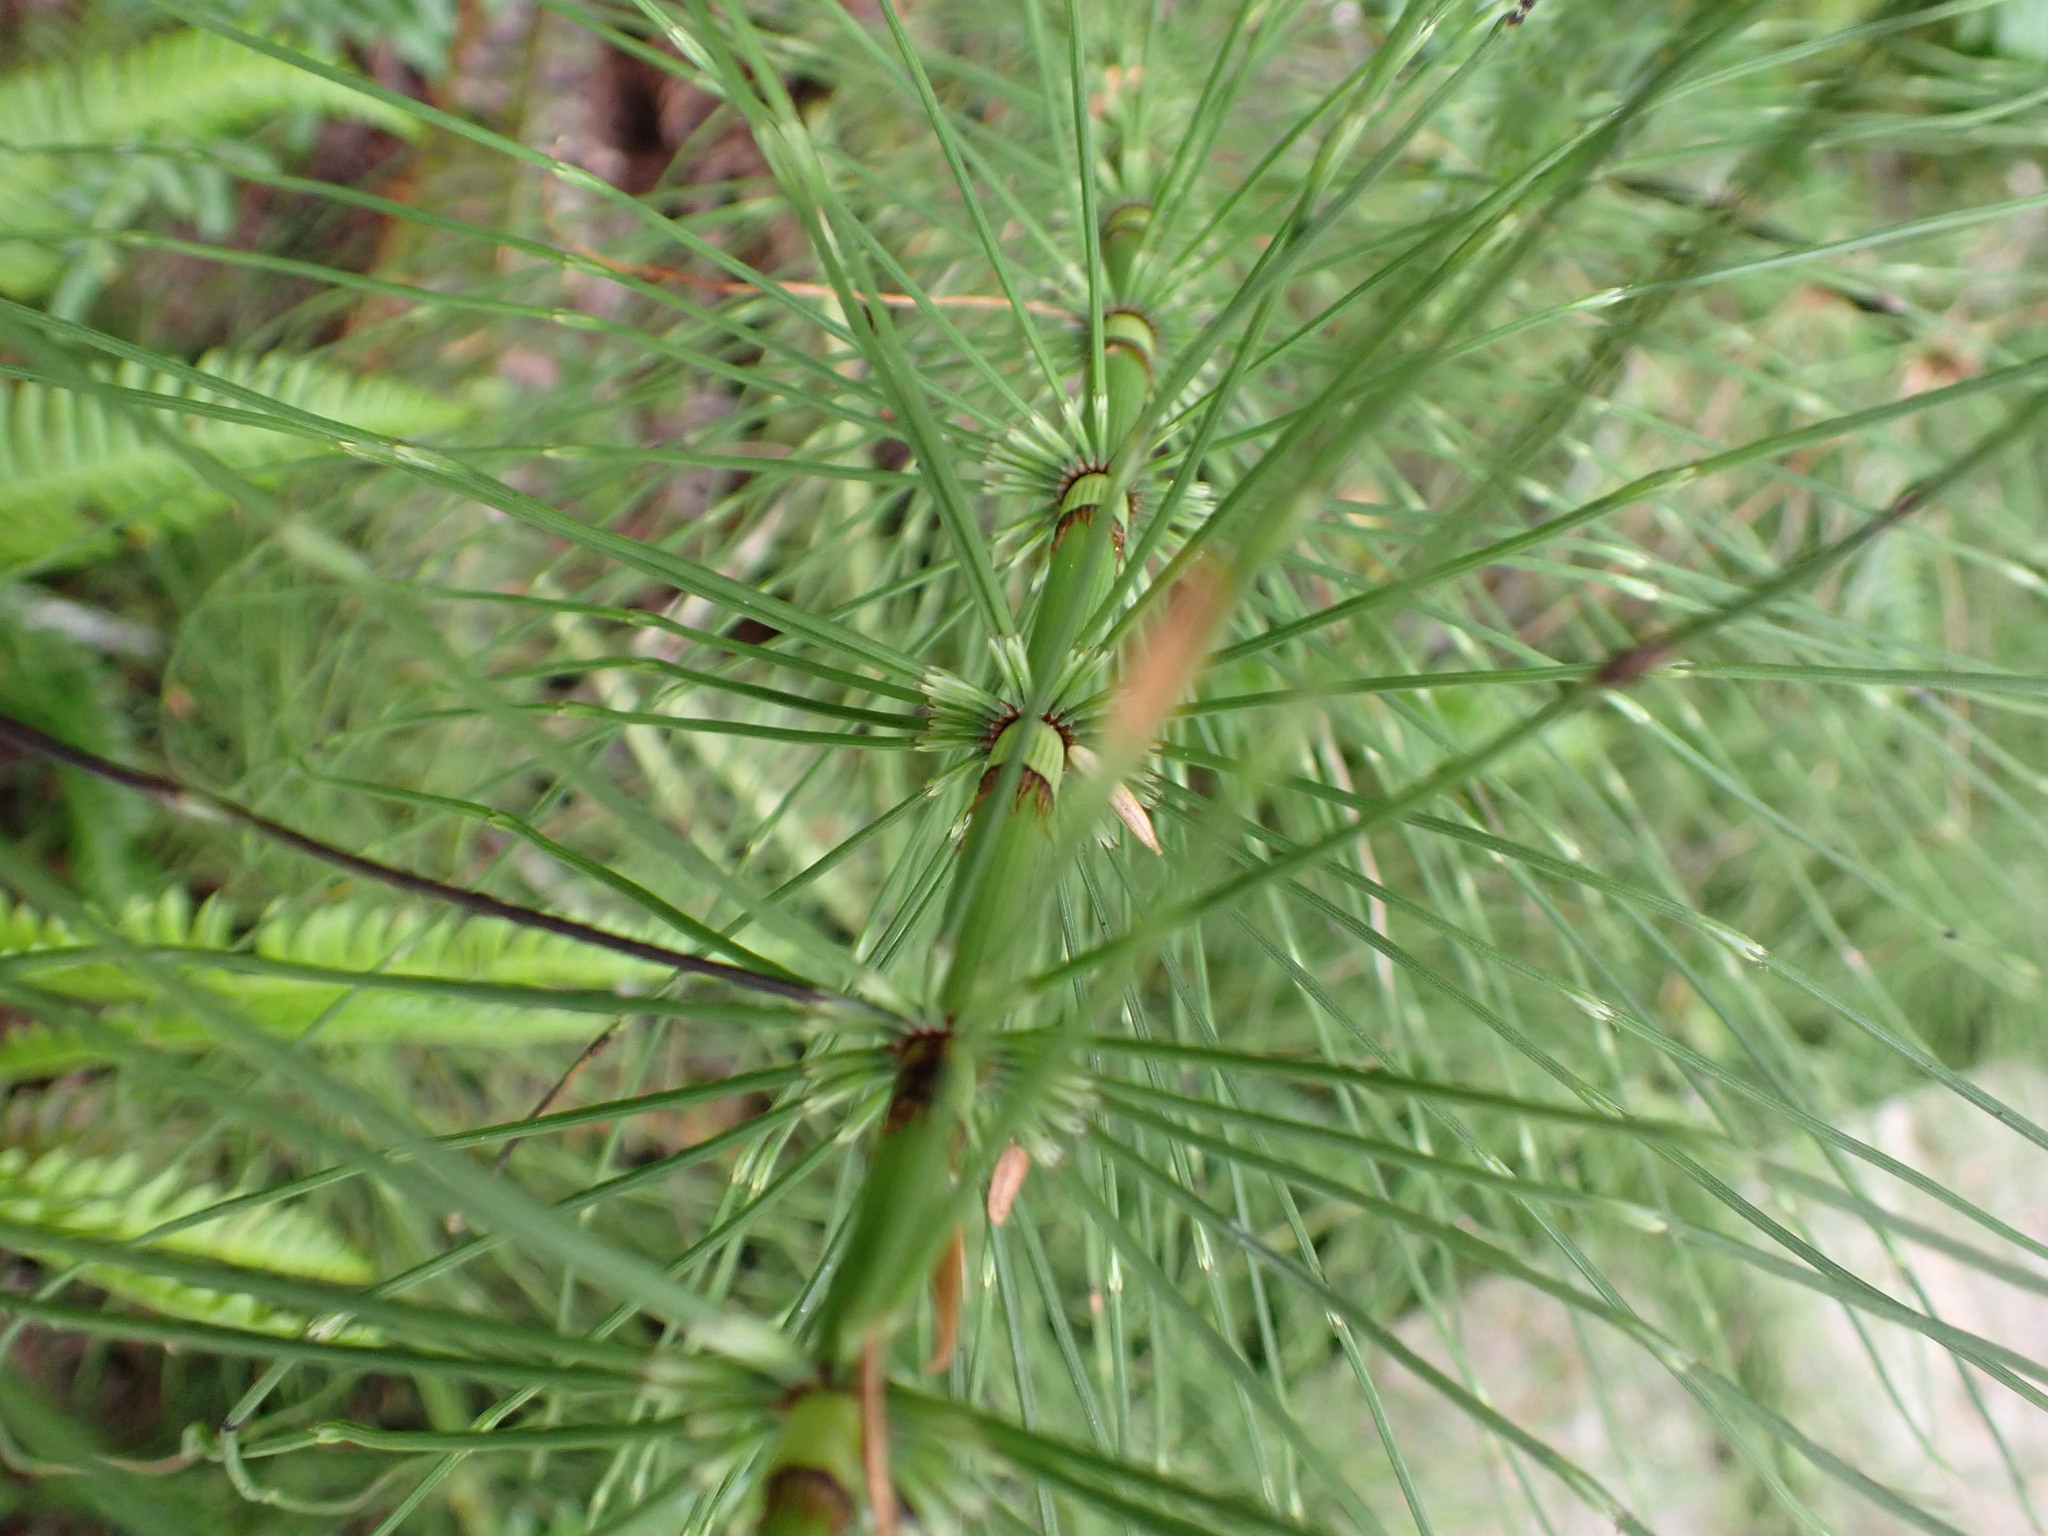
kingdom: Plantae
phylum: Tracheophyta
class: Polypodiopsida
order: Equisetales
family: Equisetaceae
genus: Equisetum
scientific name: Equisetum braunii
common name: Braun's horsetail
